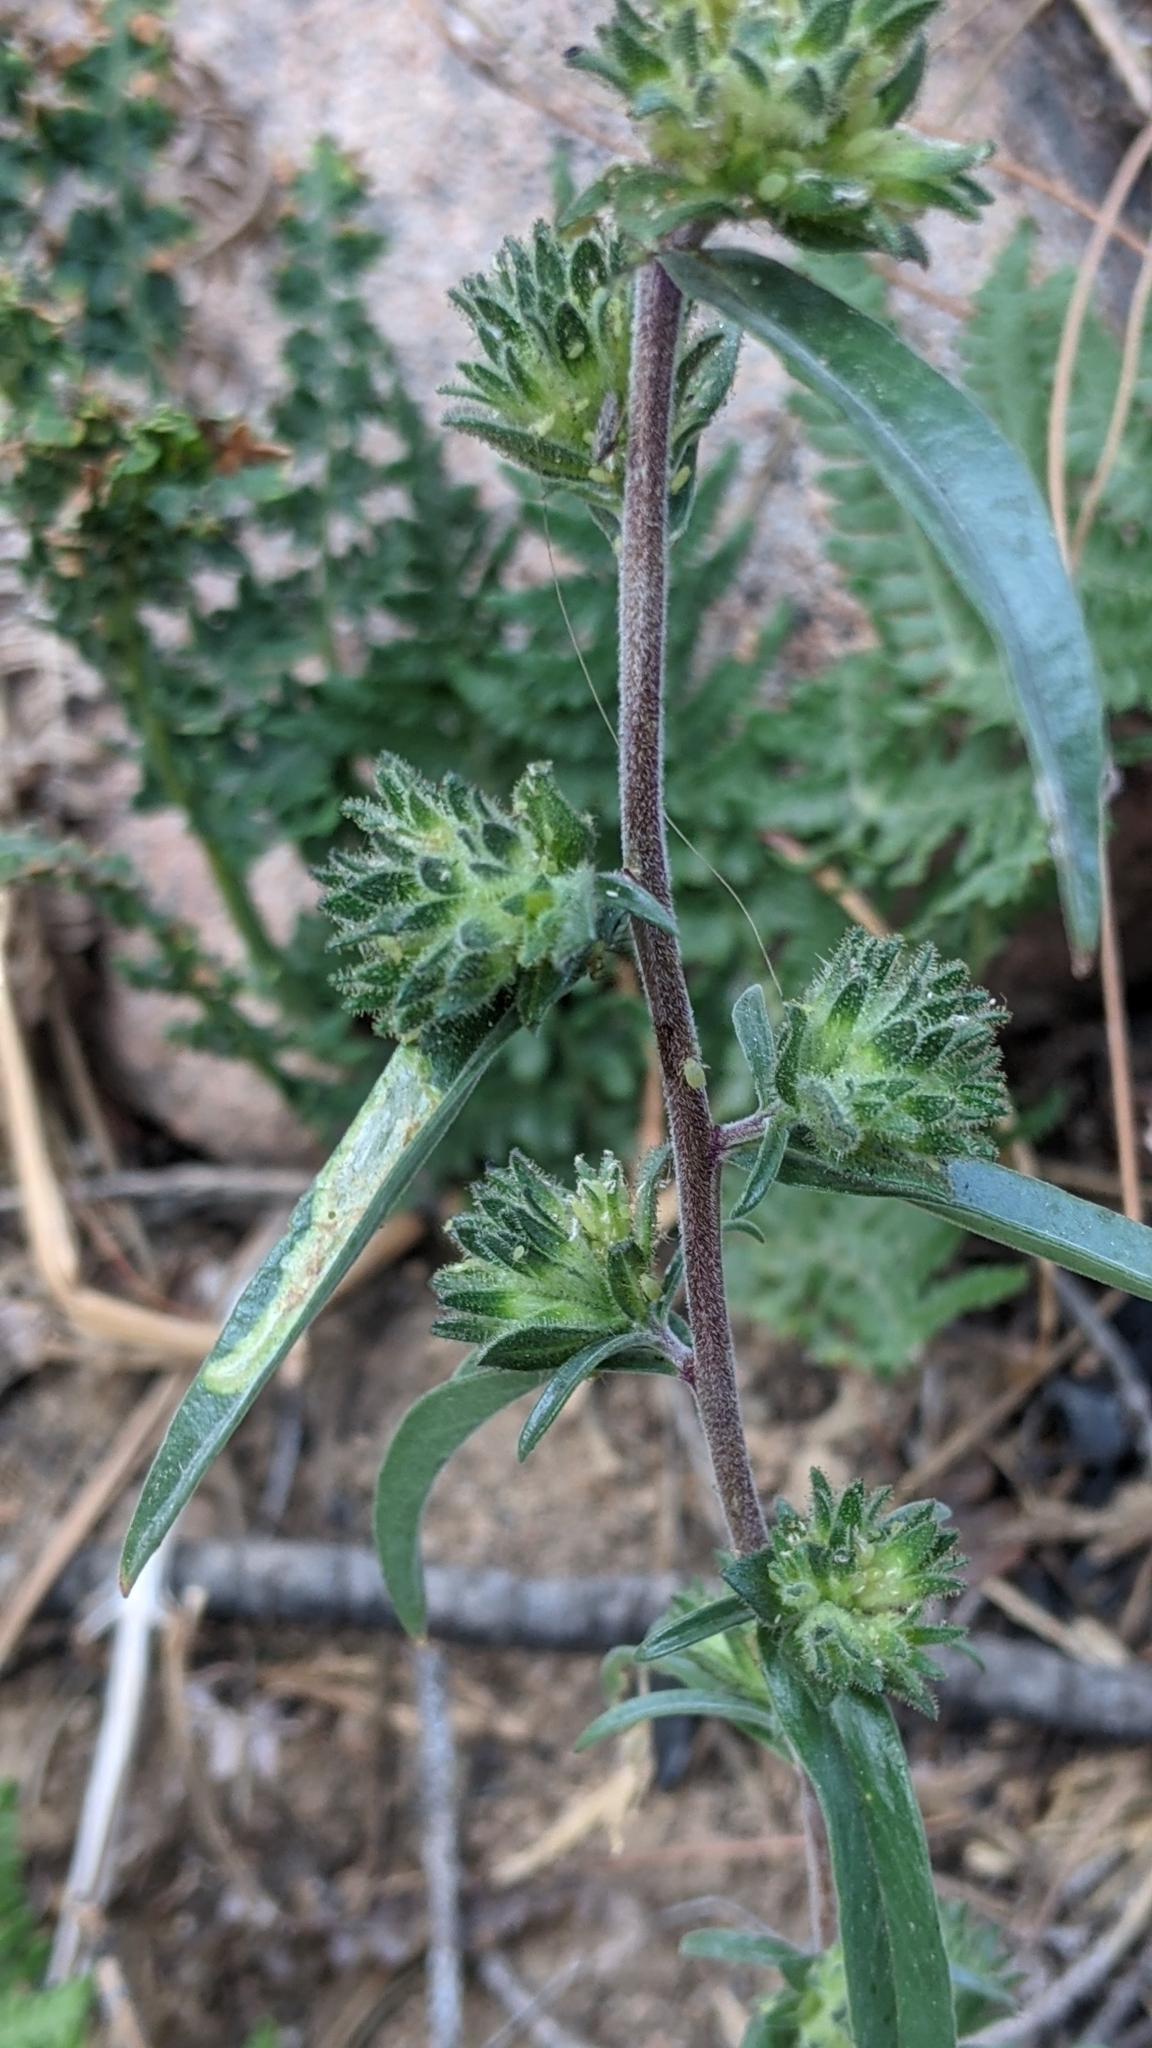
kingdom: Plantae
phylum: Tracheophyta
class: Magnoliopsida
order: Ericales
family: Polemoniaceae
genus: Collomia
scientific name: Collomia grandiflora
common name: California strawflower
